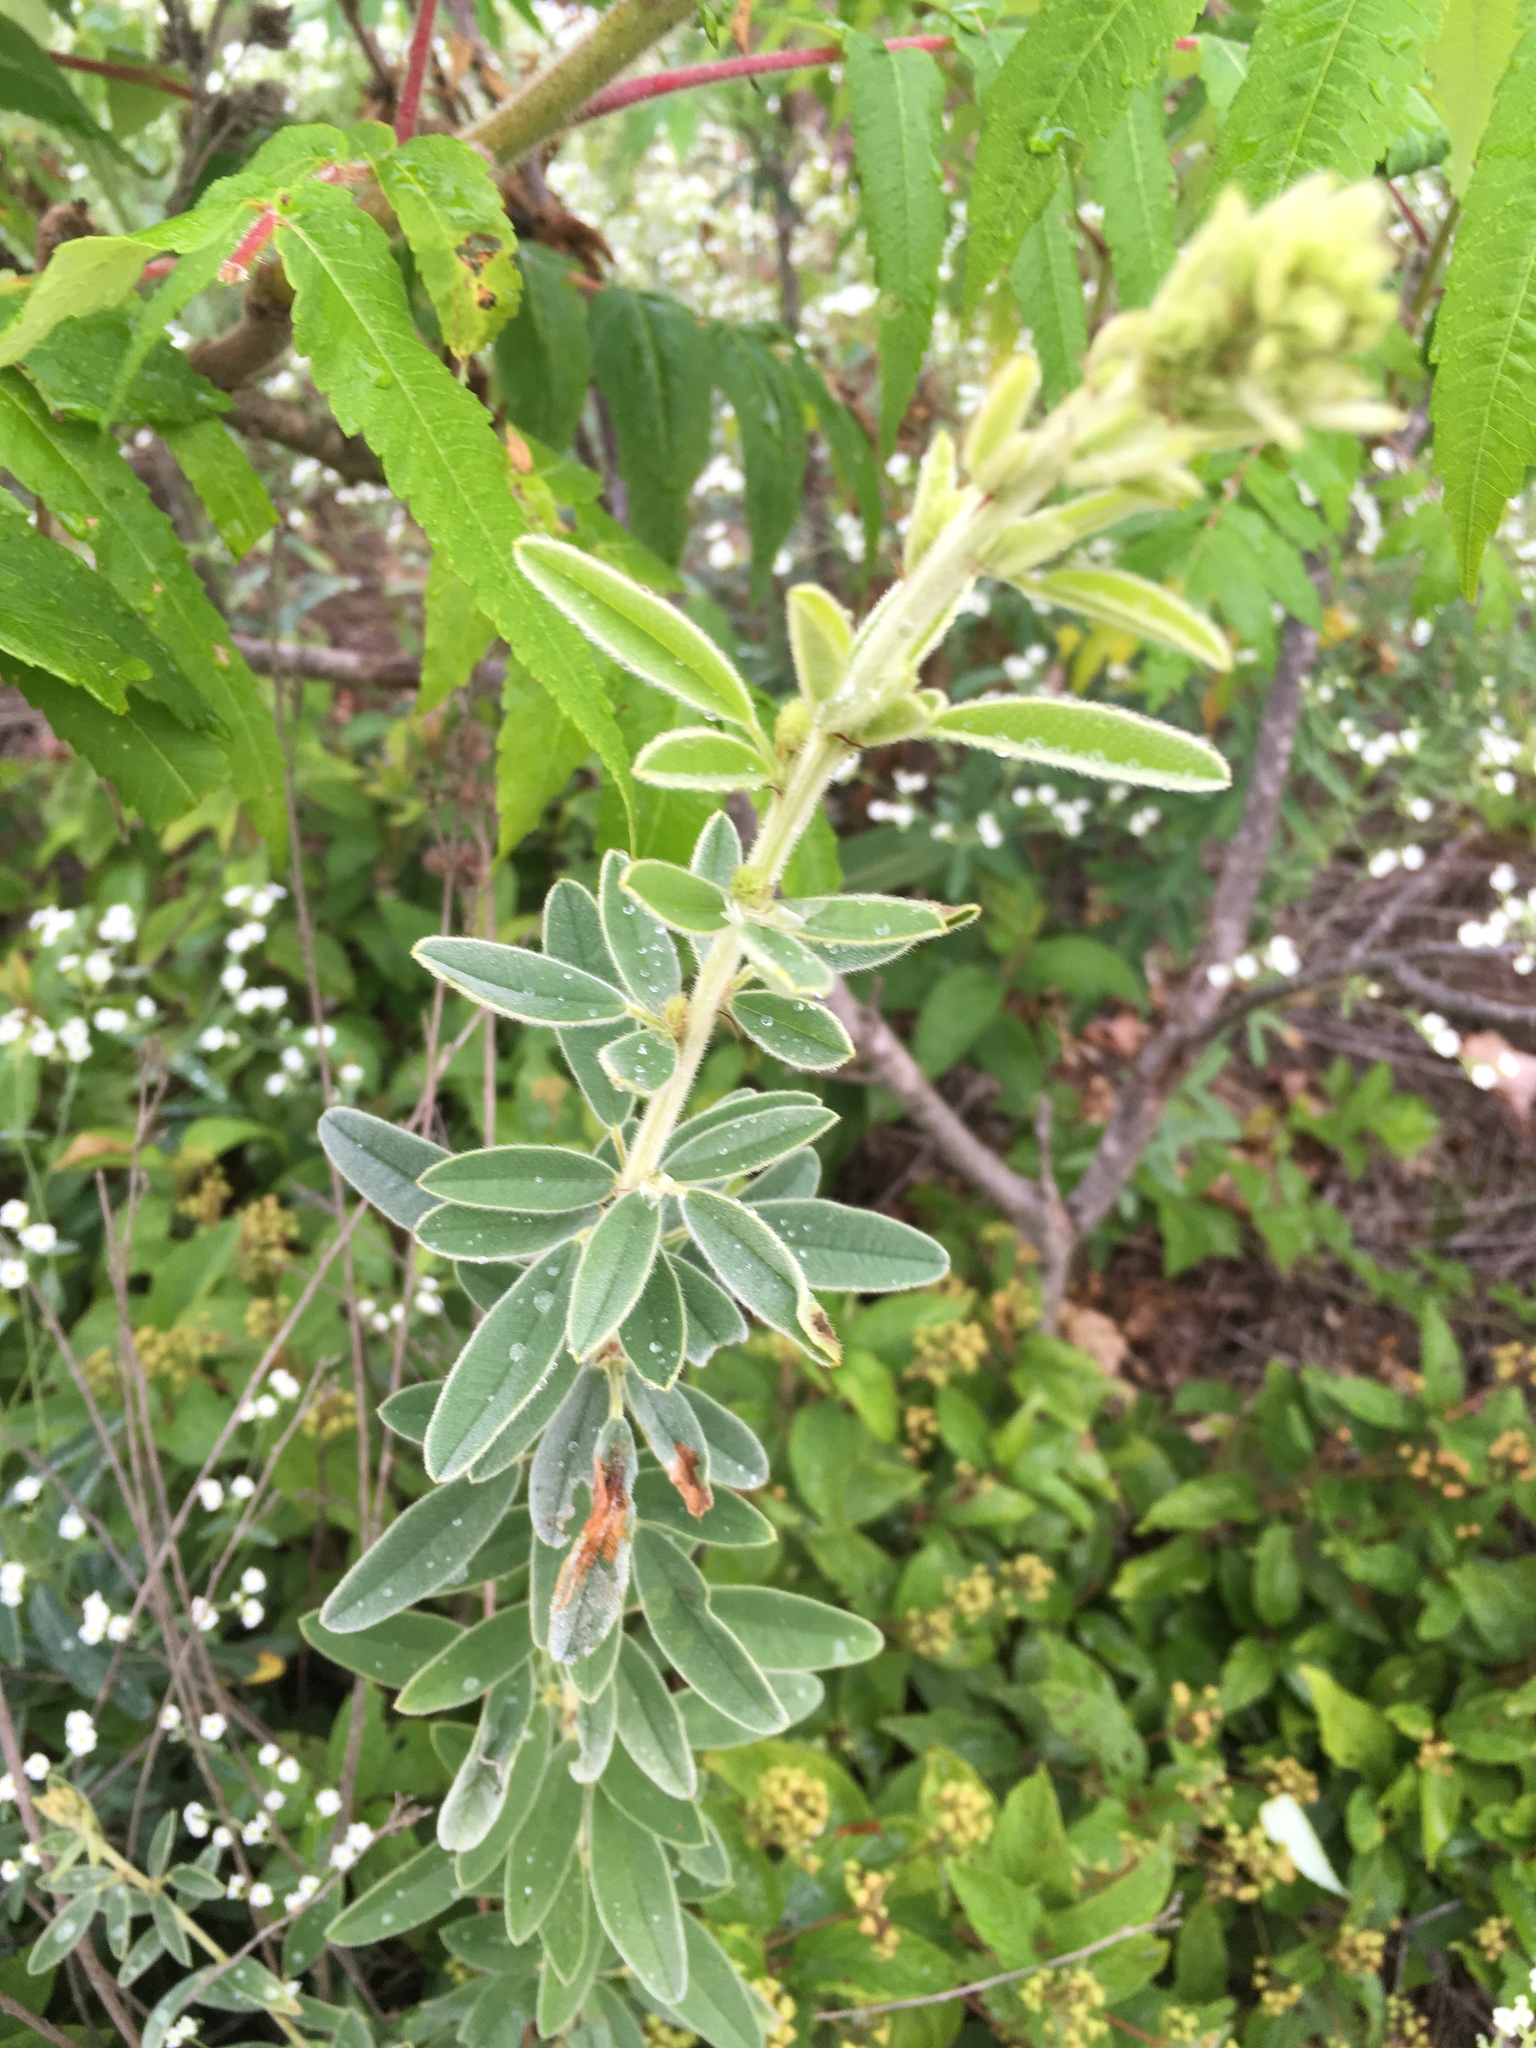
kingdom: Plantae
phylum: Tracheophyta
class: Magnoliopsida
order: Fabales
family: Fabaceae
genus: Lespedeza
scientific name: Lespedeza capitata
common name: Dusty clover
